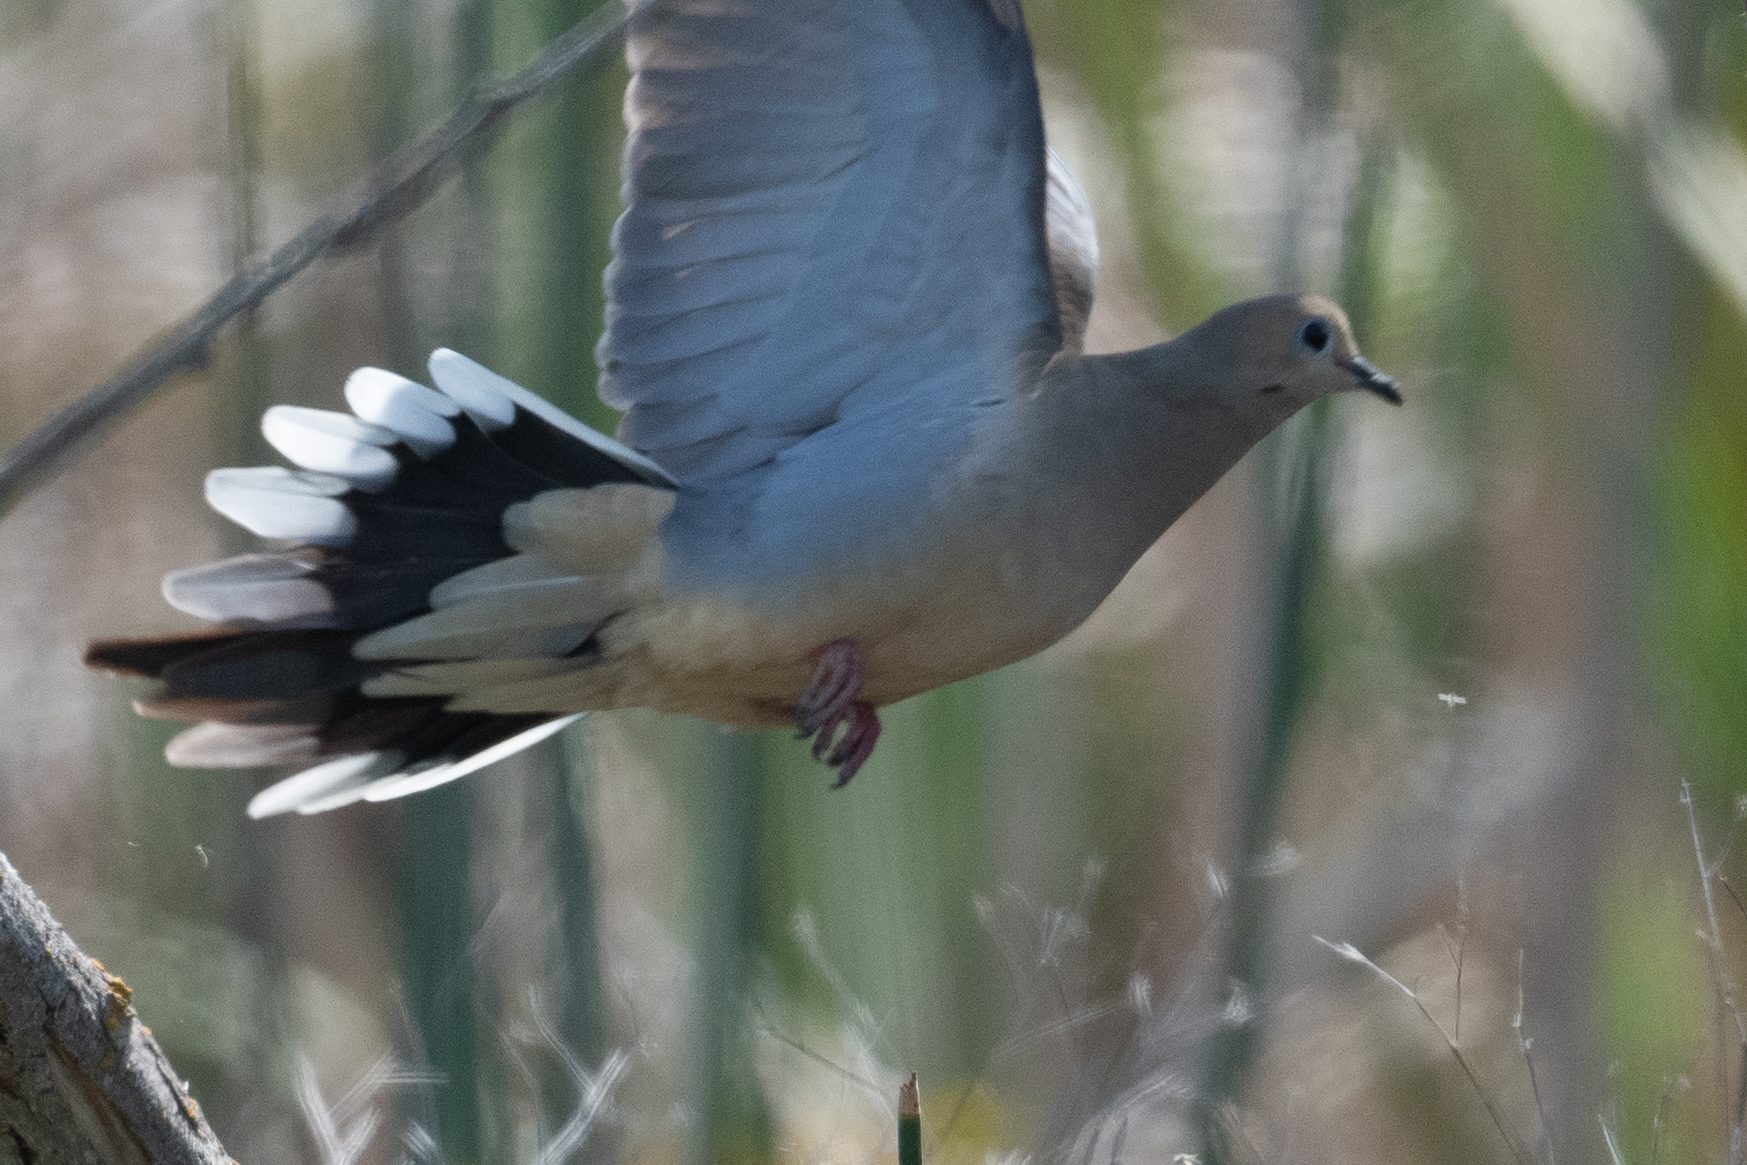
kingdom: Animalia
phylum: Chordata
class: Aves
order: Columbiformes
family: Columbidae
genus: Zenaida
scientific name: Zenaida macroura
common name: Mourning dove
